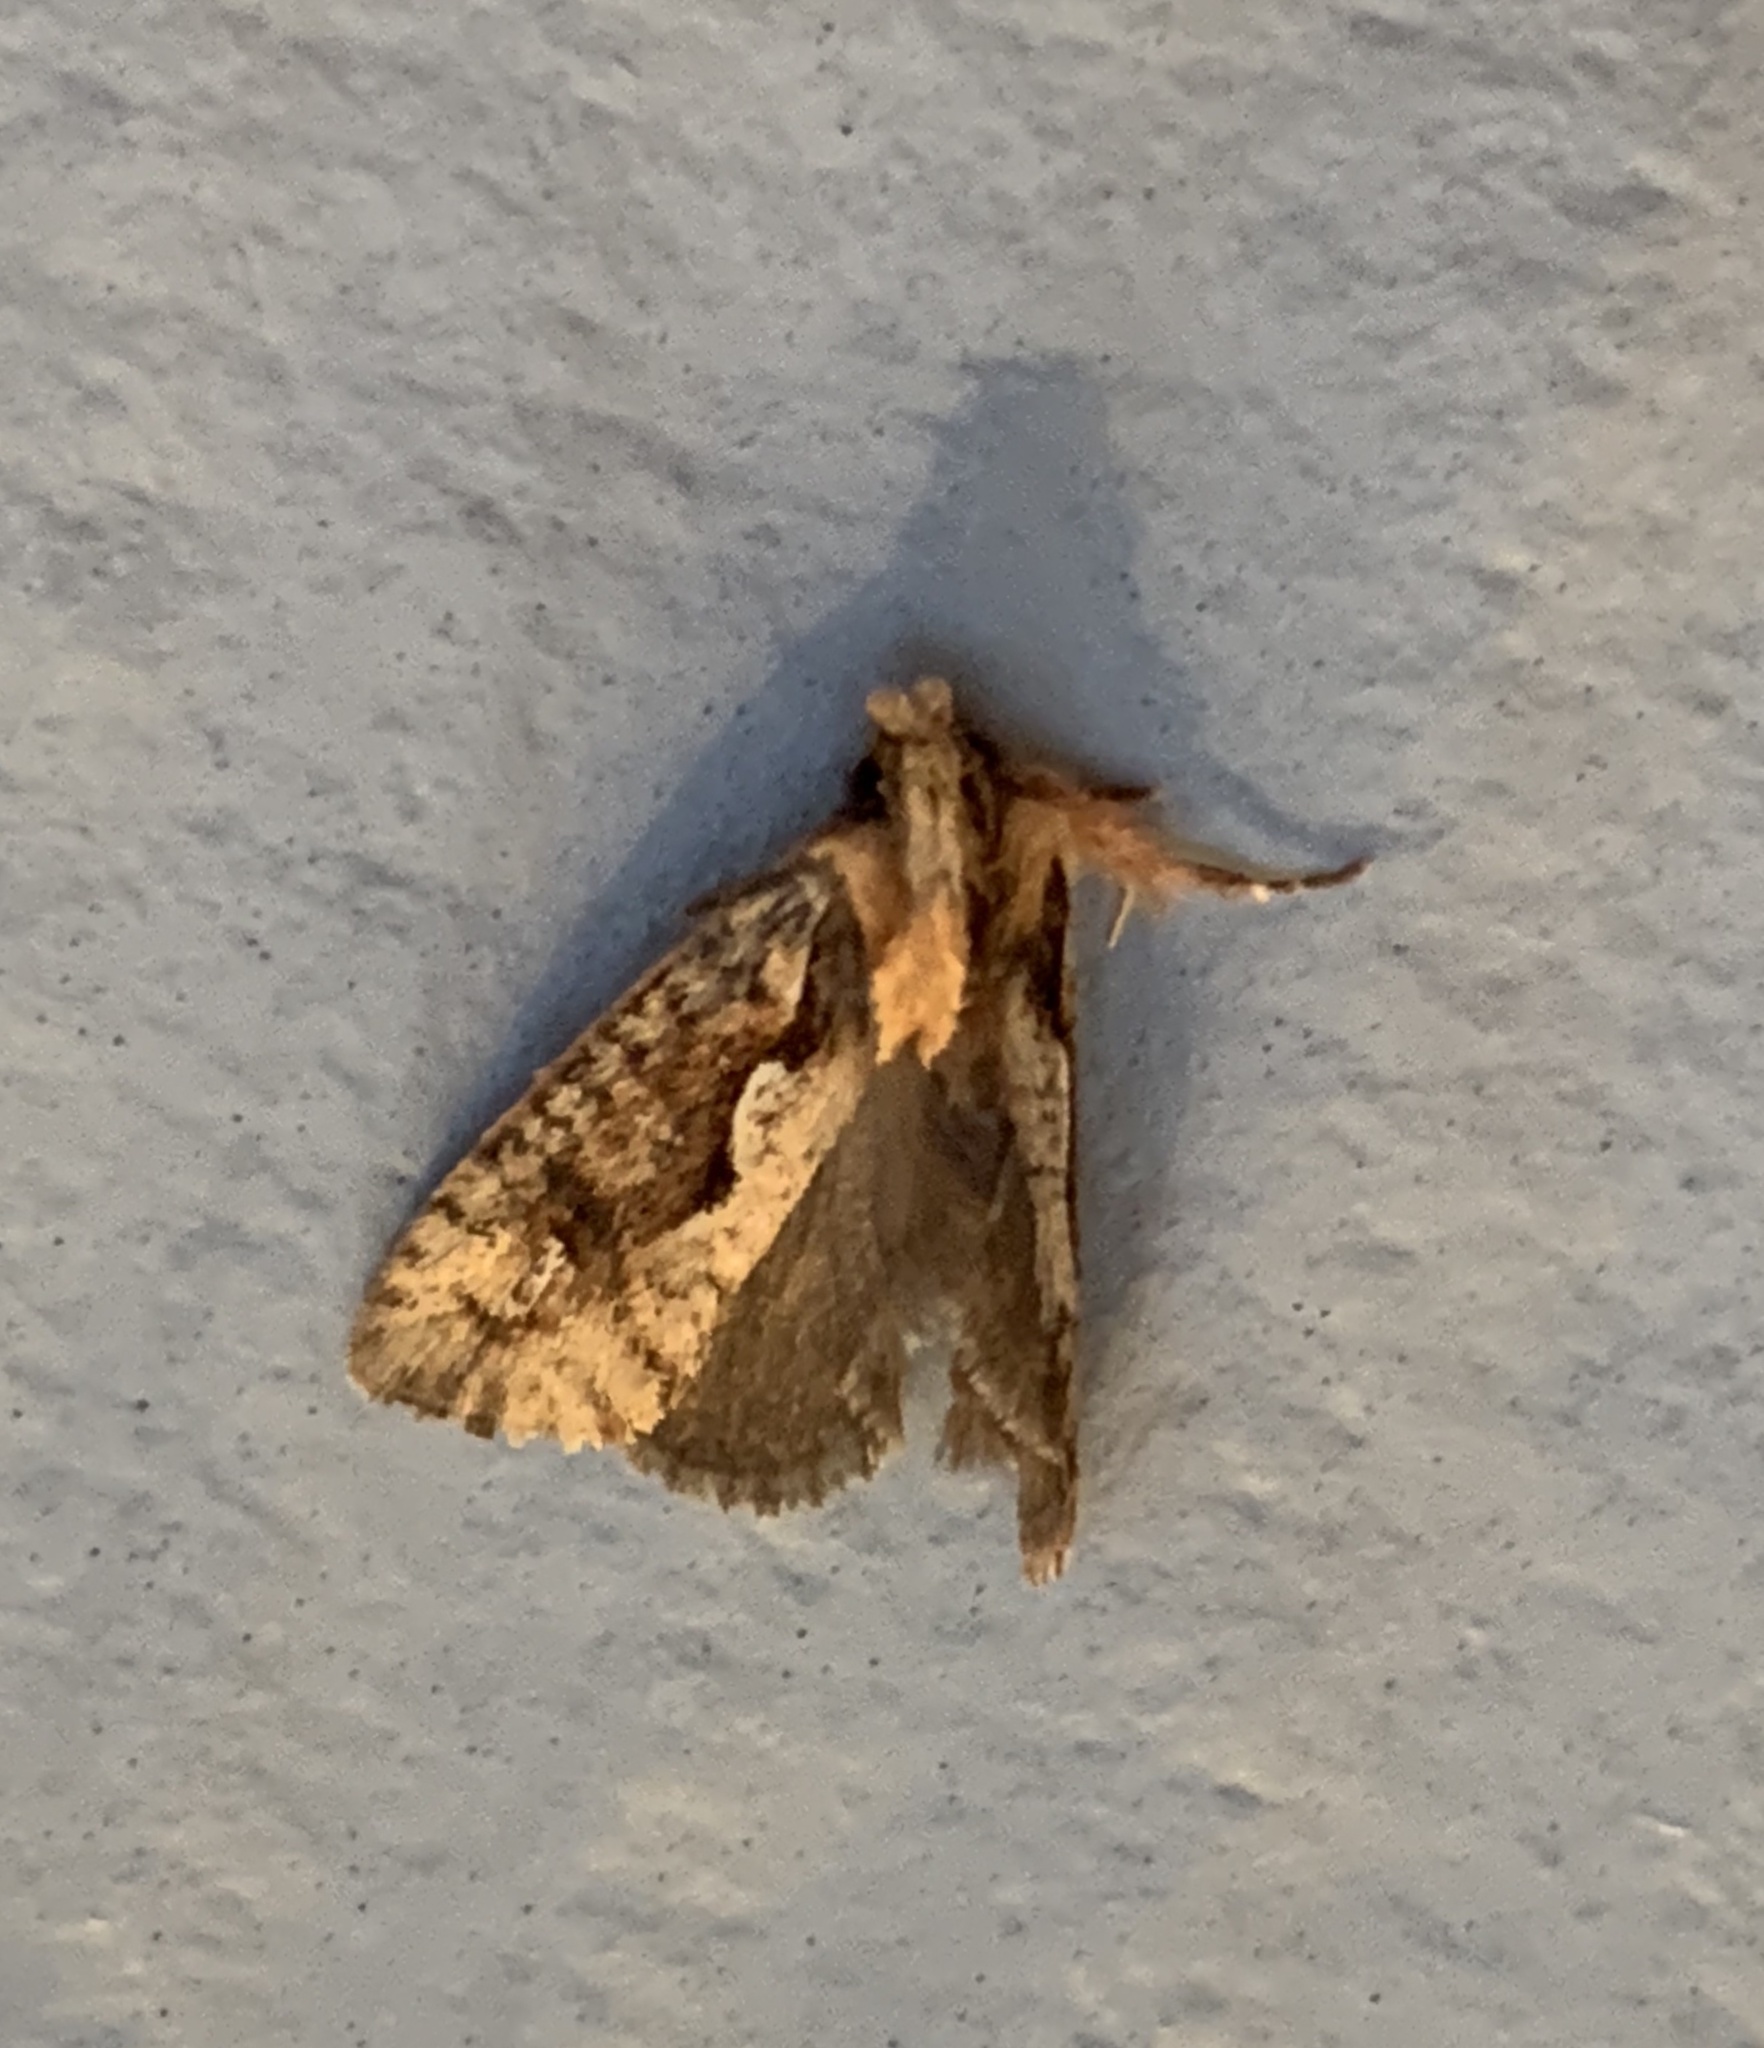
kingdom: Animalia
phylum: Arthropoda
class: Insecta
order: Lepidoptera
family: Tineidae
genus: Acrolophus
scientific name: Acrolophus walsinghami
